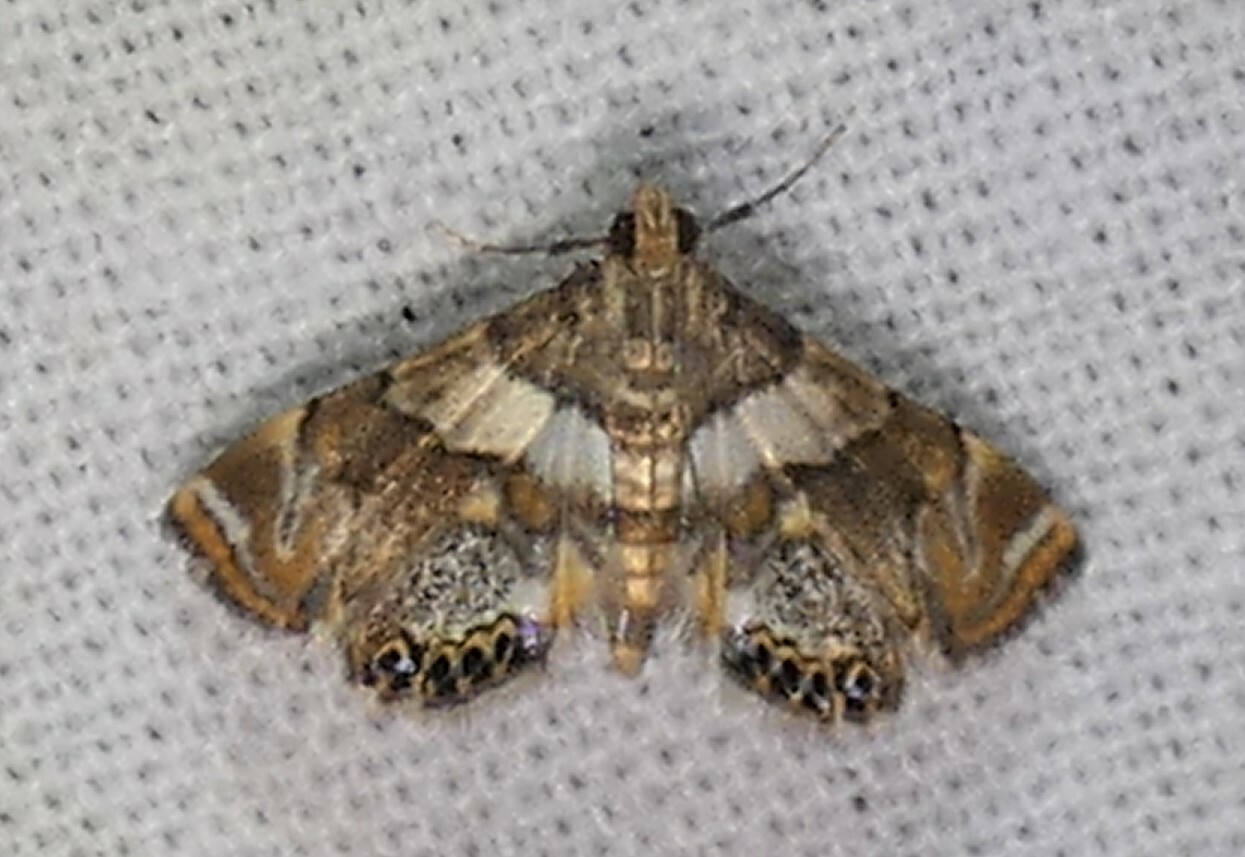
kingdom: Animalia
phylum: Arthropoda
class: Insecta
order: Lepidoptera
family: Crambidae
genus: Neargyractis
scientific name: Neargyractis slossonalis
